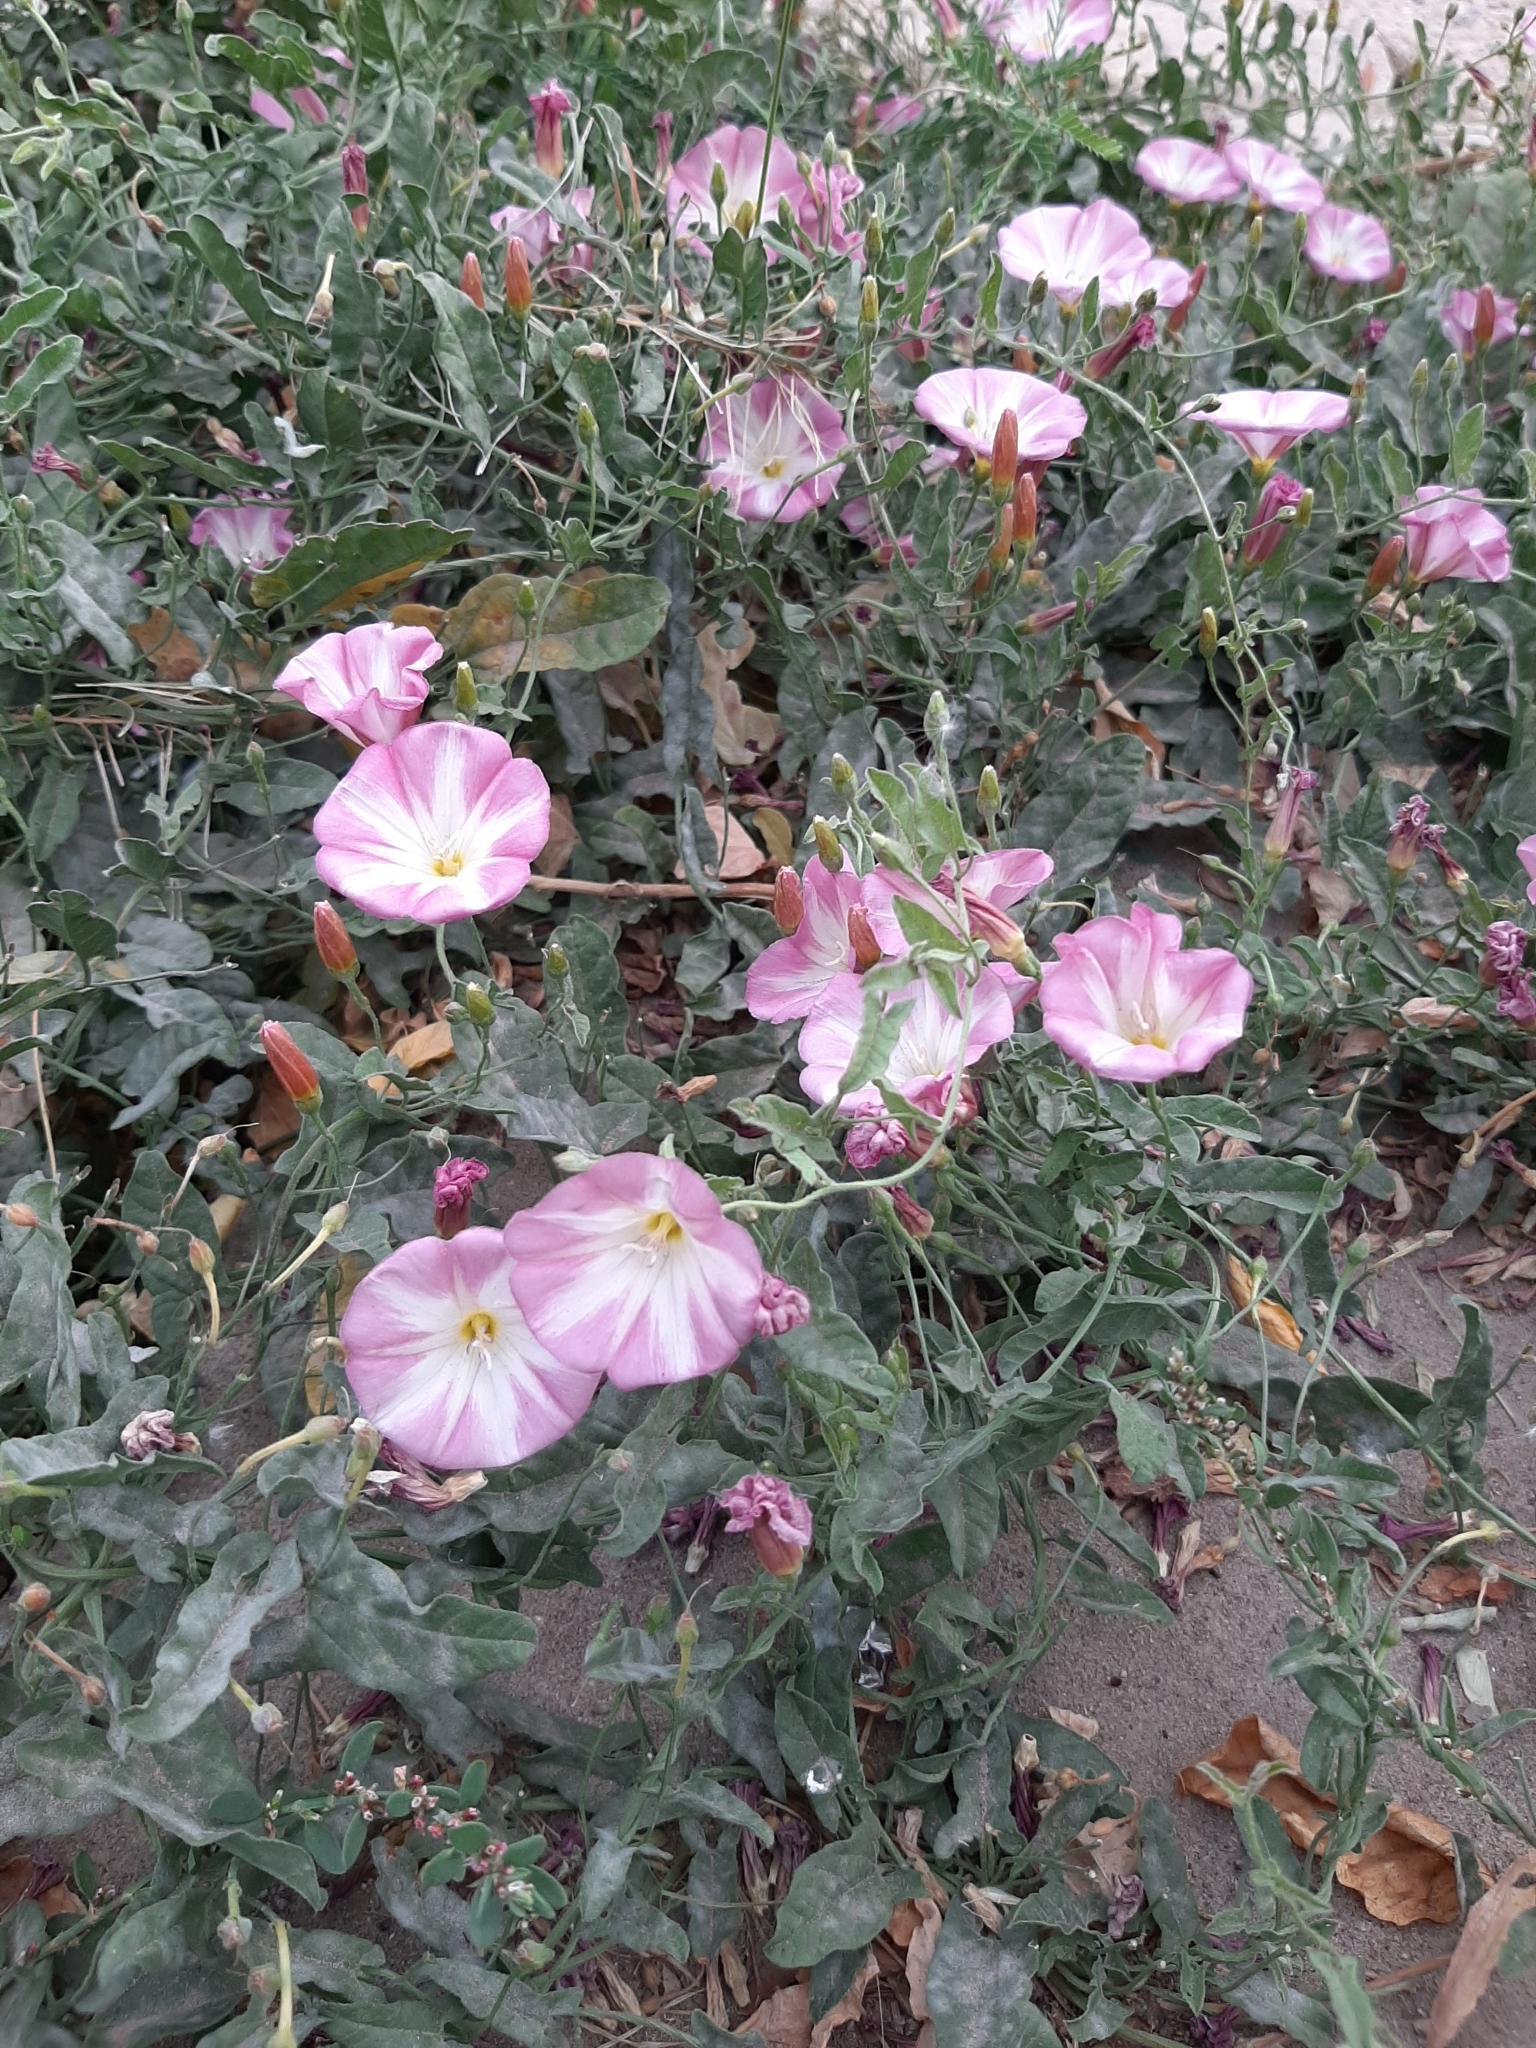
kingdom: Plantae
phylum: Tracheophyta
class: Magnoliopsida
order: Solanales
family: Convolvulaceae
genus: Convolvulus
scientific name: Convolvulus arvensis
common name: Field bindweed
